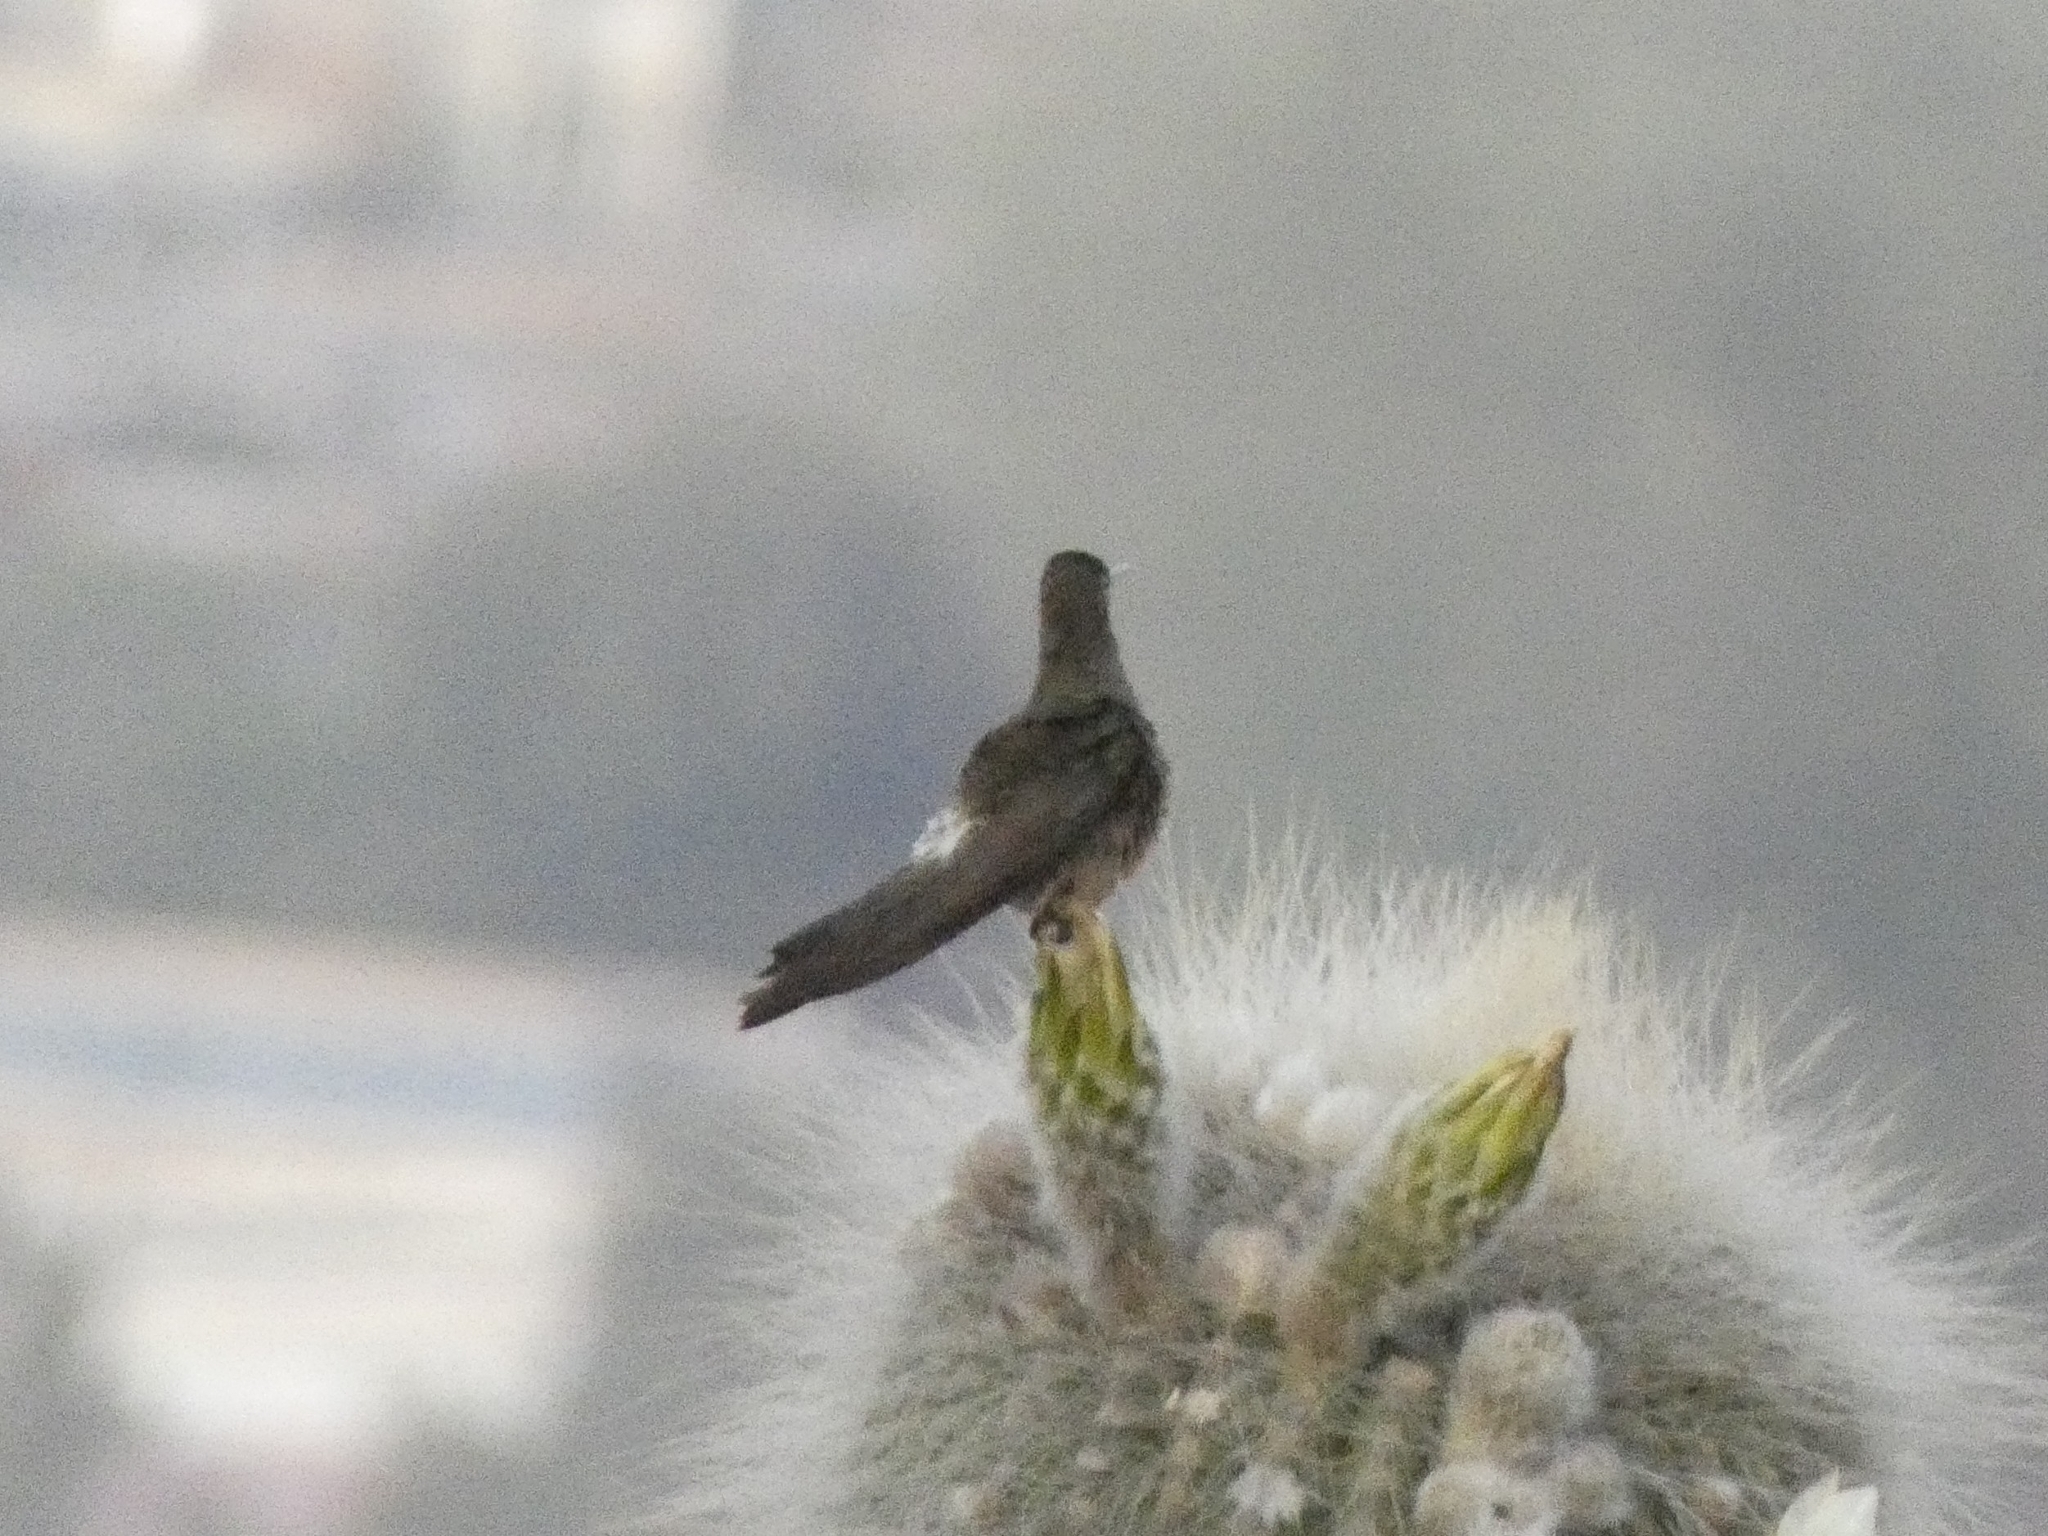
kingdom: Animalia
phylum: Chordata
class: Aves
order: Apodiformes
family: Trochilidae
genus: Patagona
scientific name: Patagona gigas
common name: Giant hummingbird
